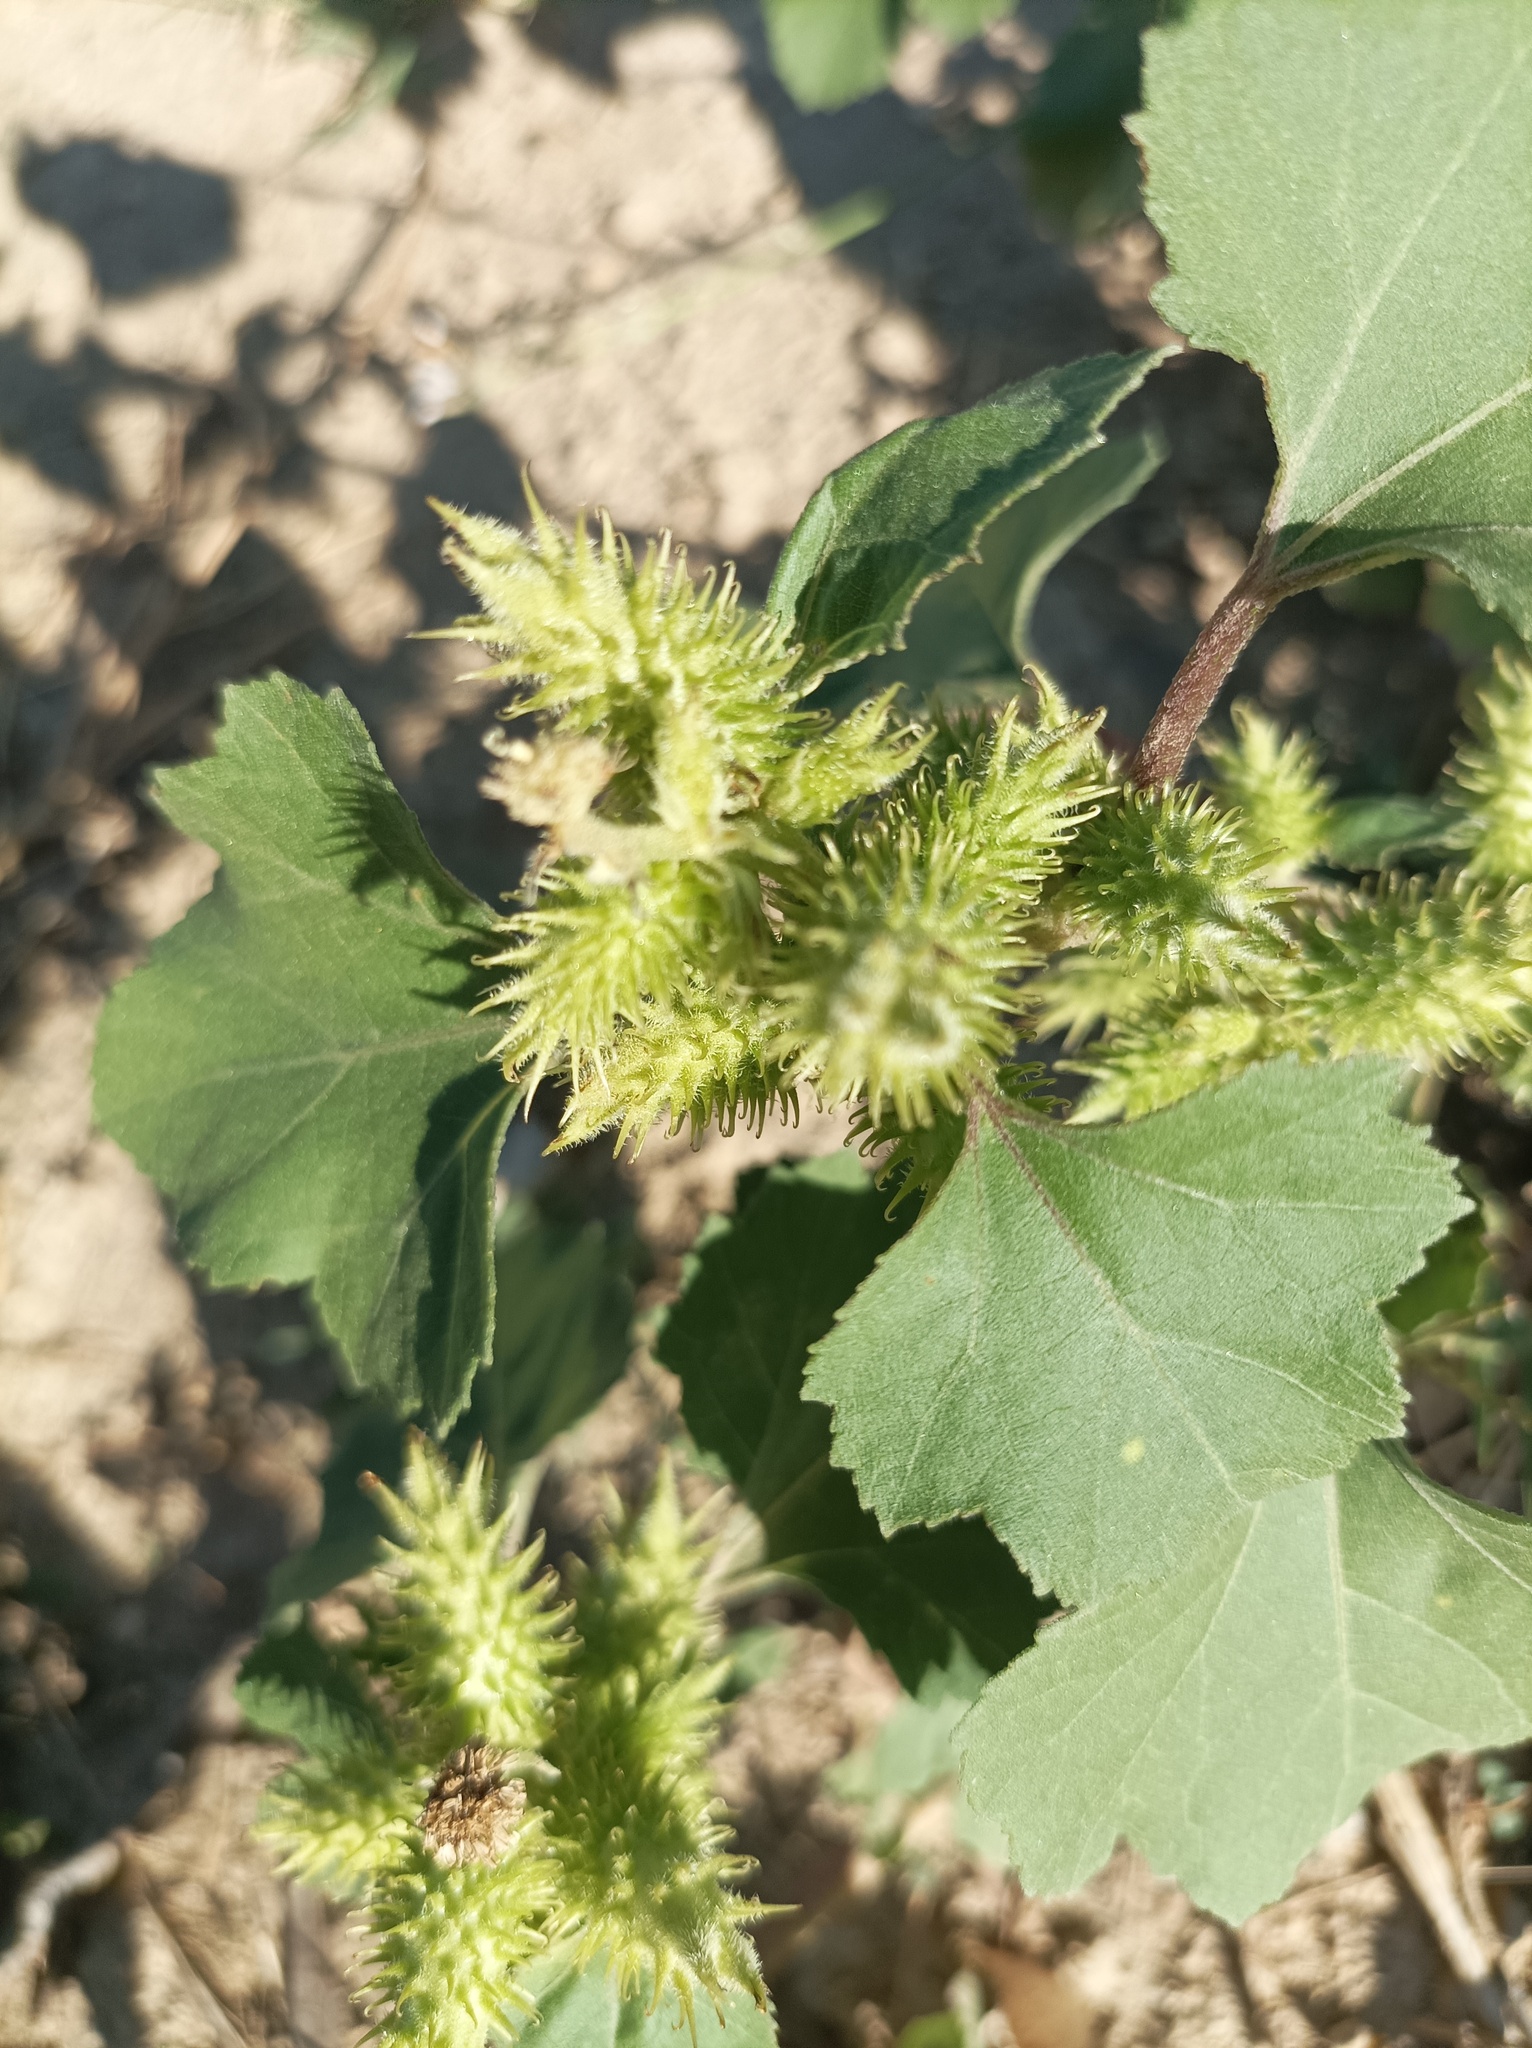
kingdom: Plantae
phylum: Tracheophyta
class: Magnoliopsida
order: Asterales
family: Asteraceae
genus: Xanthium
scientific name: Xanthium strumarium
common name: Rough cocklebur
